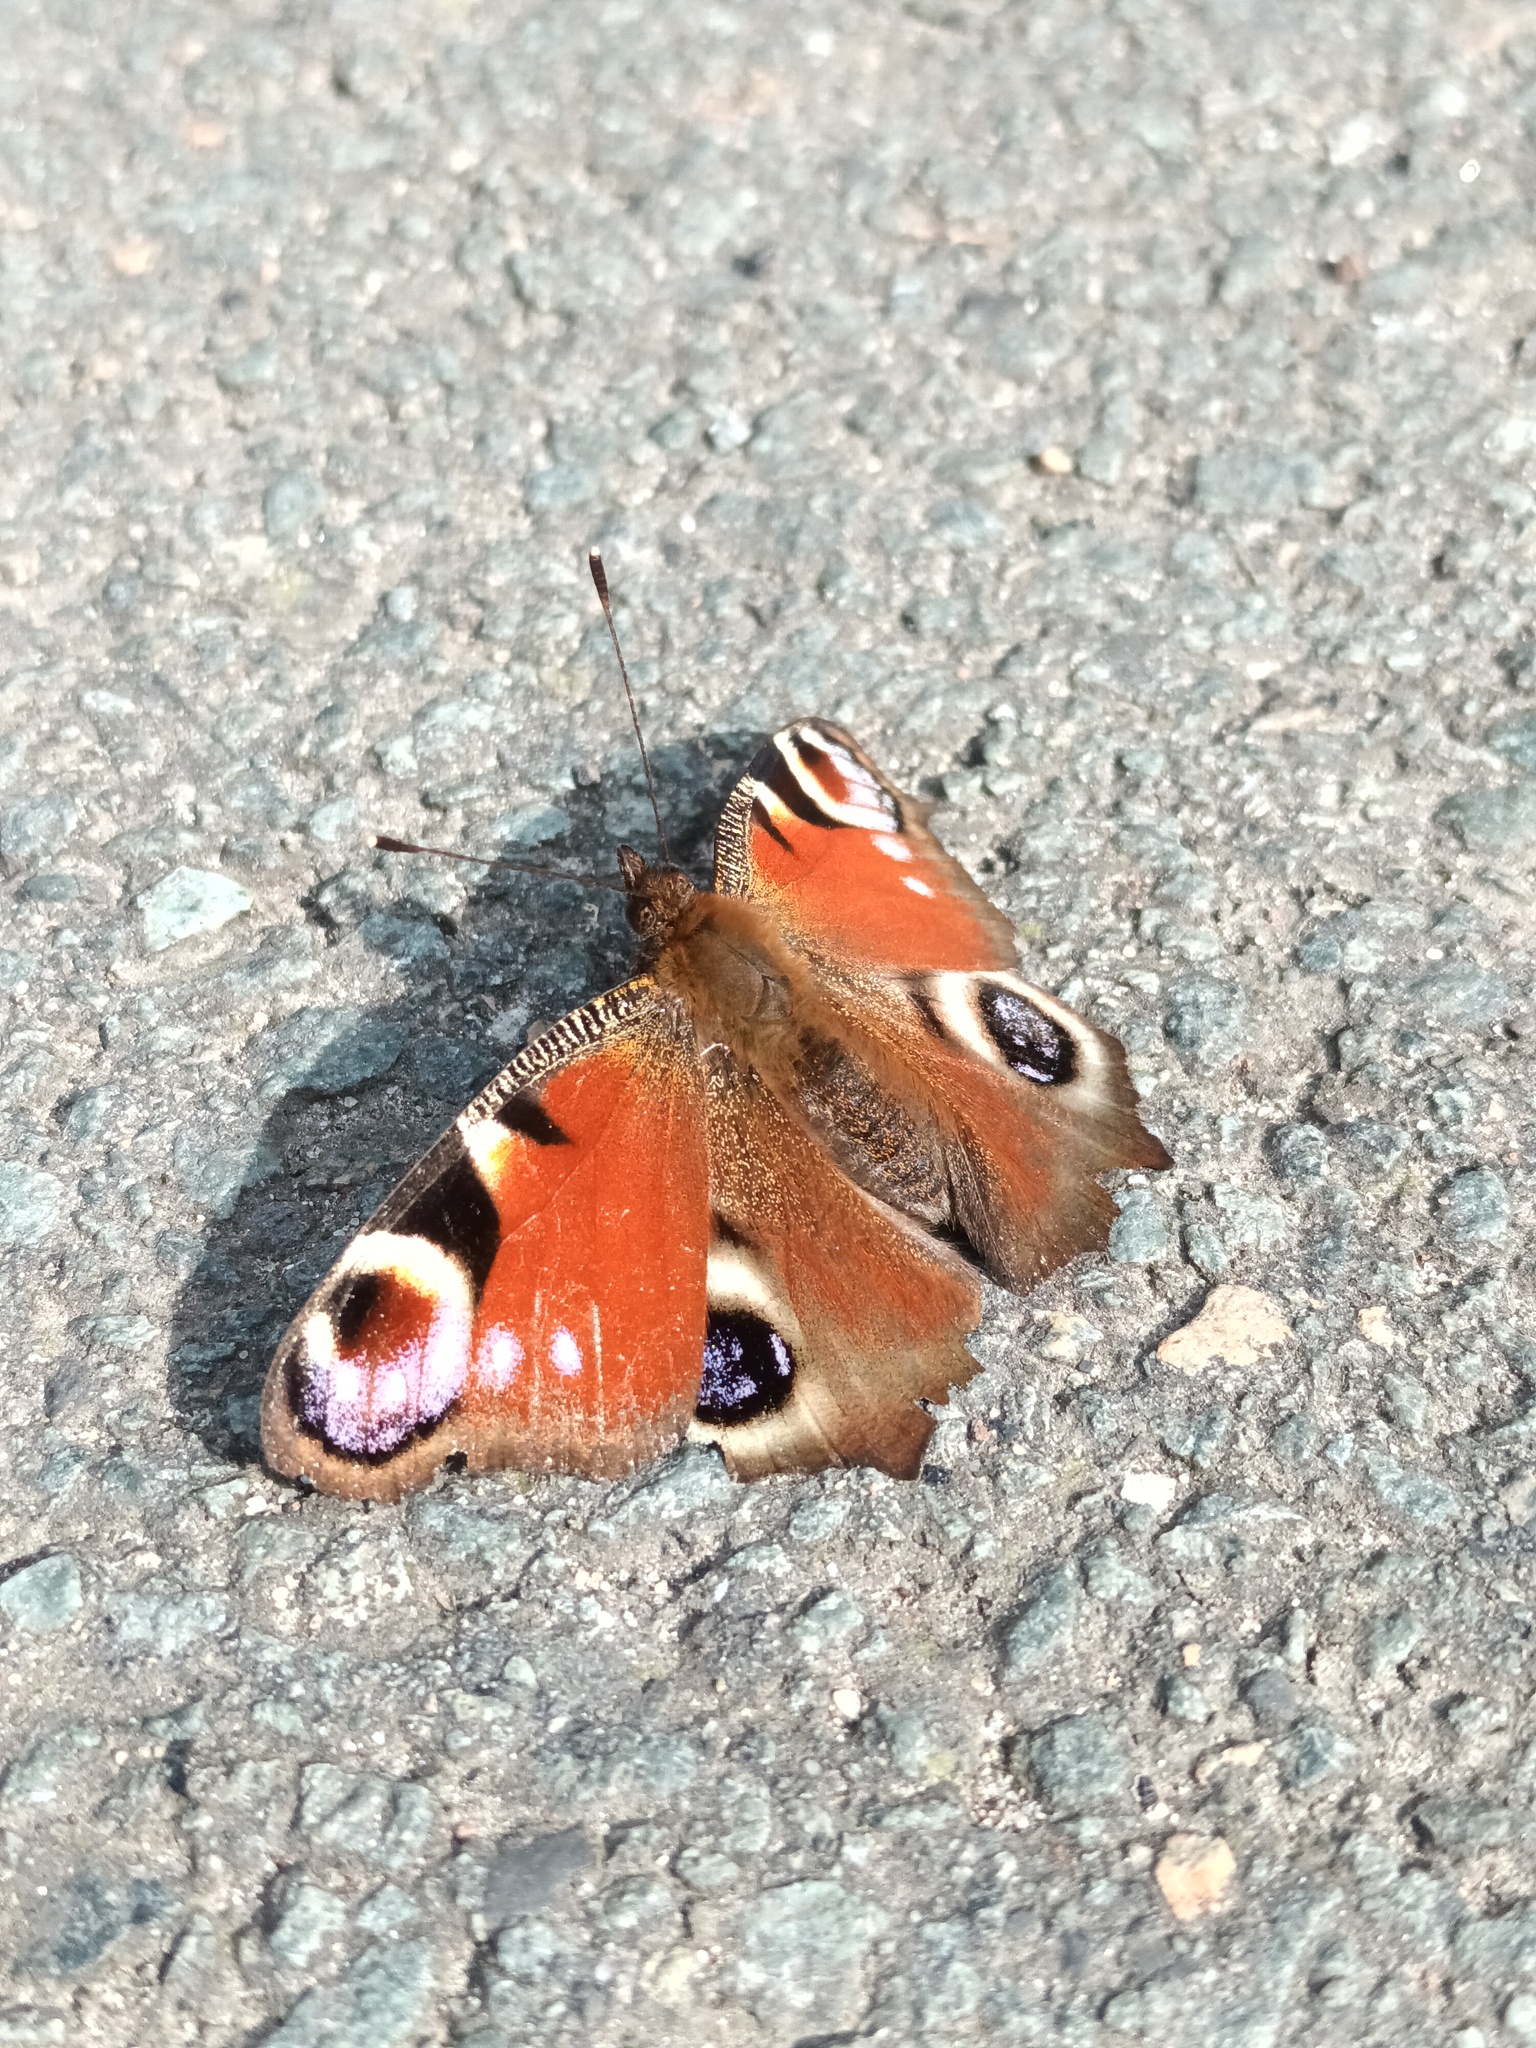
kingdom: Animalia
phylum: Arthropoda
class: Insecta
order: Lepidoptera
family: Nymphalidae
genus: Aglais
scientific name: Aglais io
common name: Peacock
